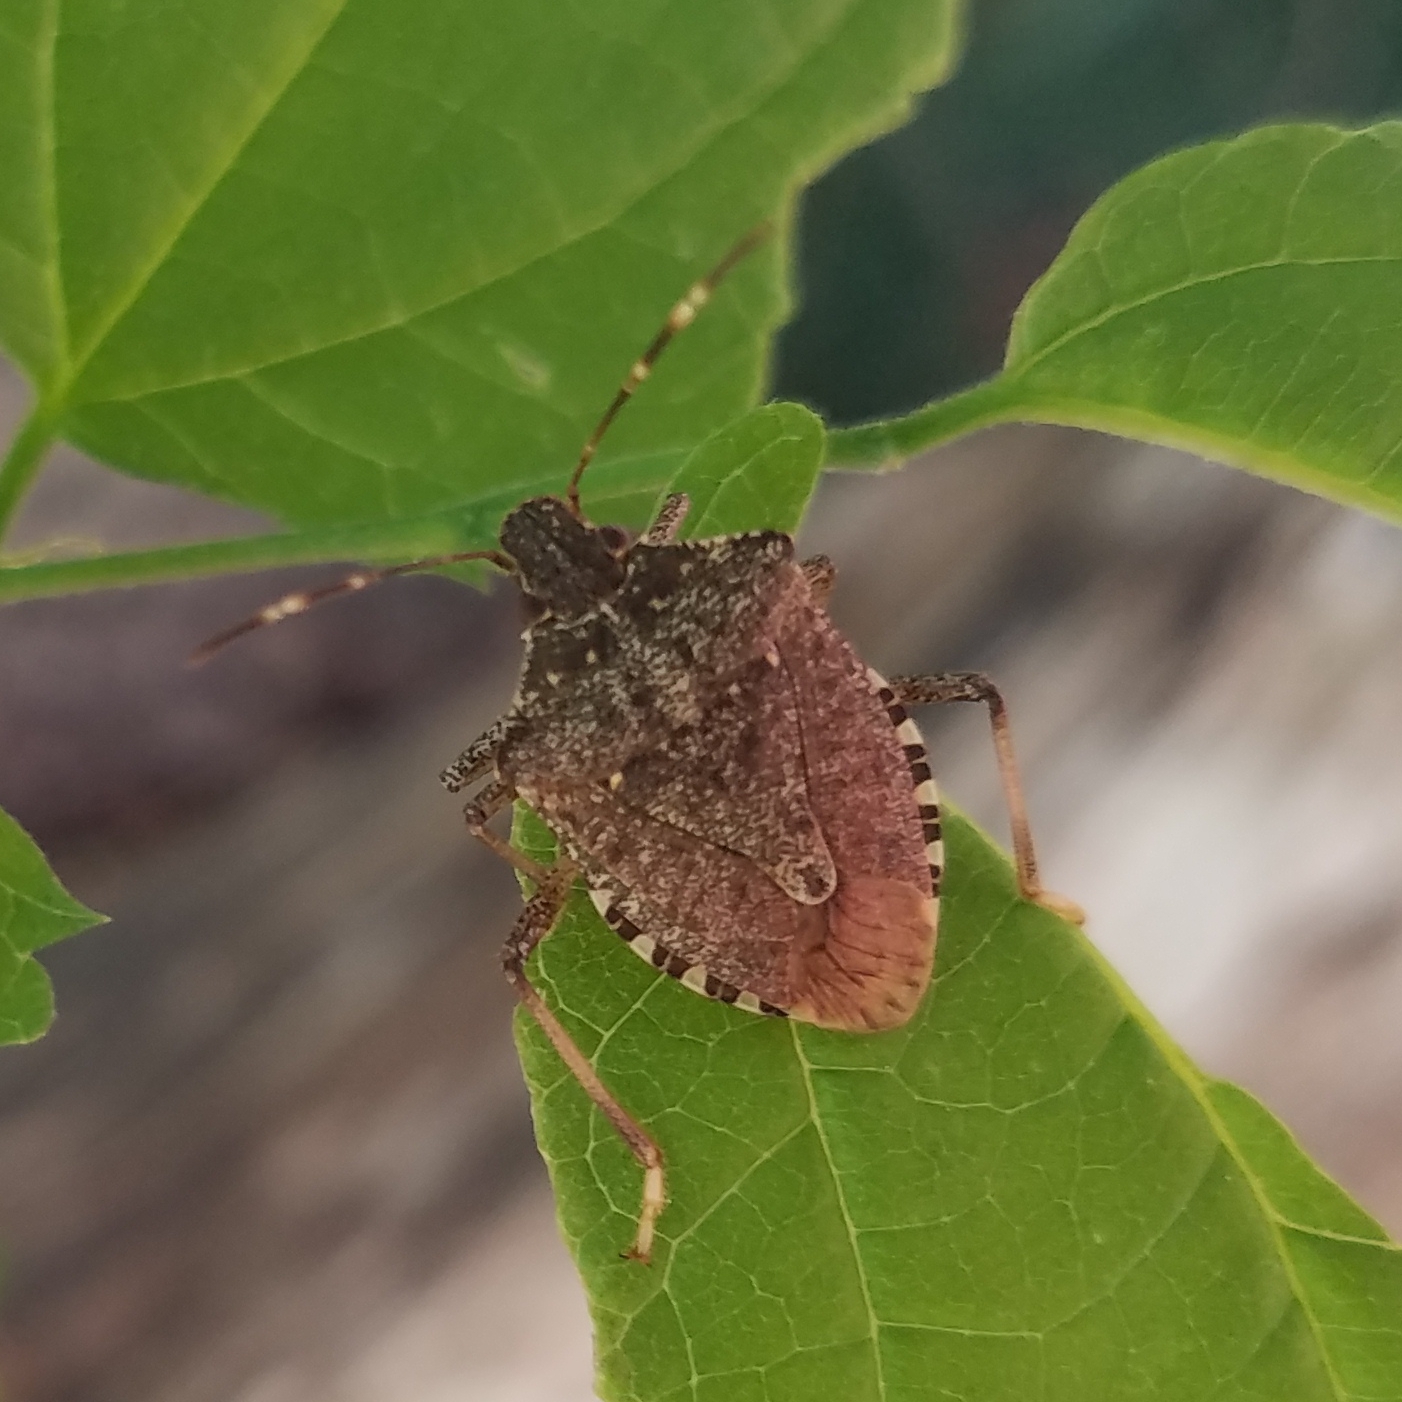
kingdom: Animalia
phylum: Arthropoda
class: Insecta
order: Hemiptera
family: Pentatomidae
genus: Halyomorpha
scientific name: Halyomorpha halys
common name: Brown marmorated stink bug
